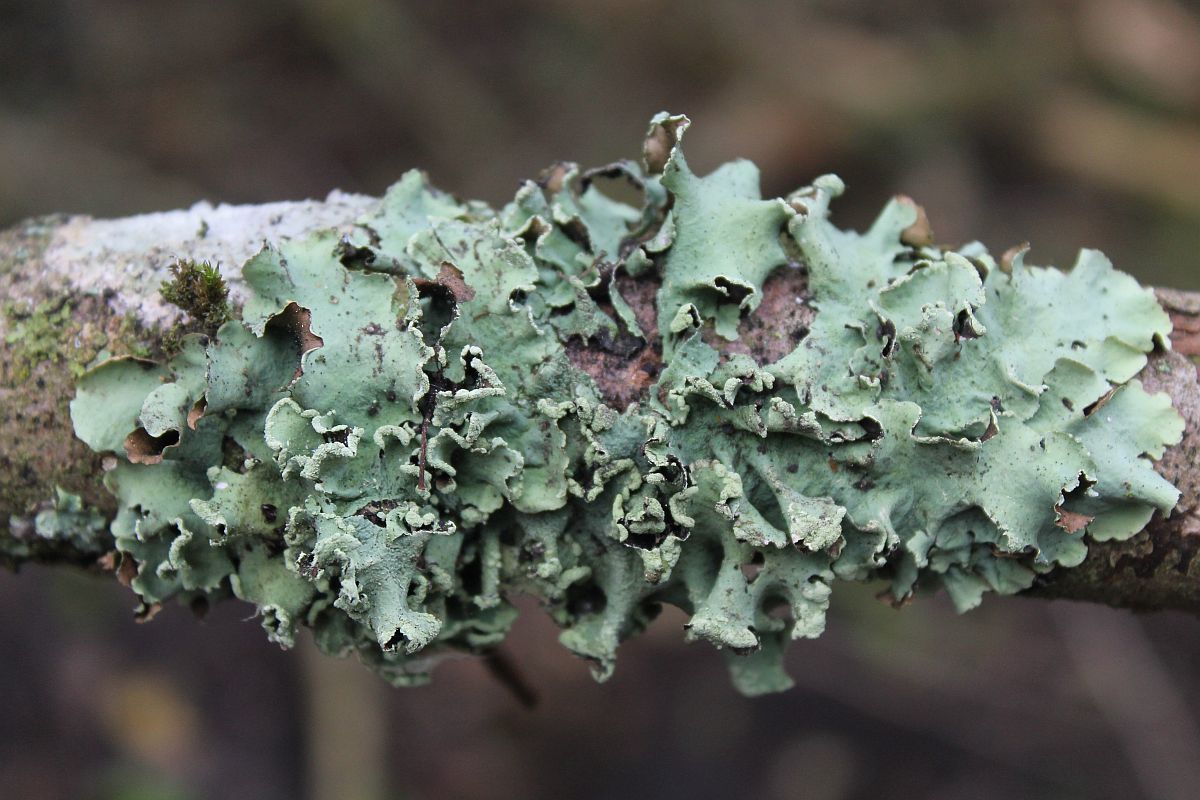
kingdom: Fungi
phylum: Ascomycota
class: Lecanoromycetes
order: Lecanorales
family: Parmeliaceae
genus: Parmotrema
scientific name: Parmotrema perlatum
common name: Black stone flower
